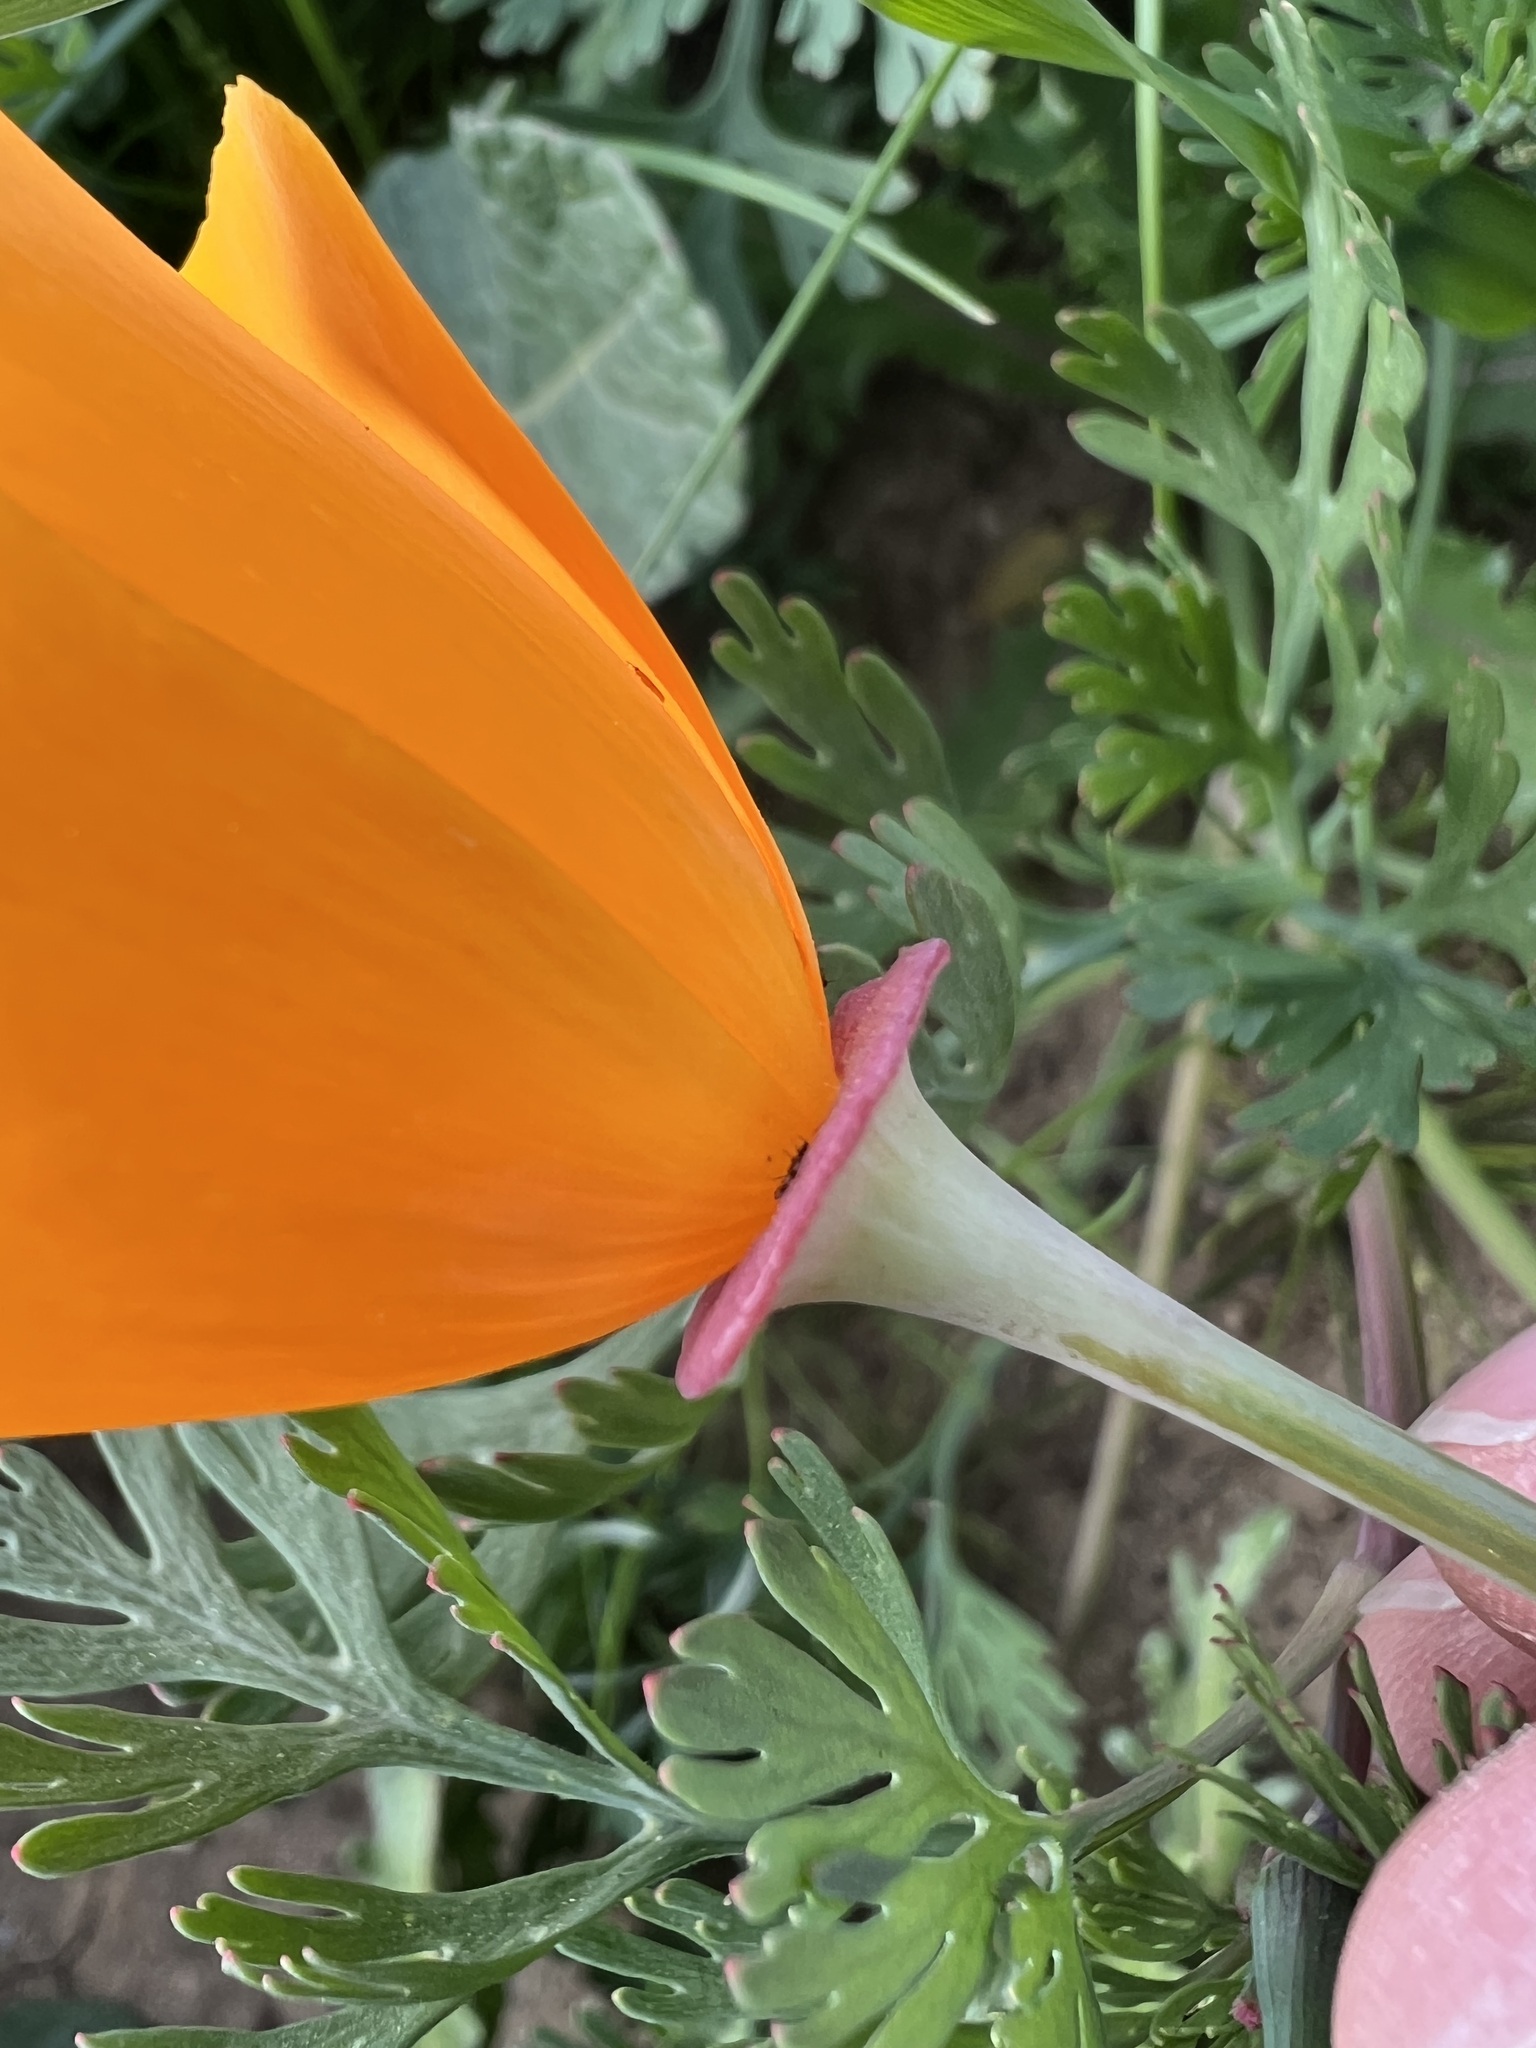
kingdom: Plantae
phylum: Tracheophyta
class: Magnoliopsida
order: Ranunculales
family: Papaveraceae
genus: Eschscholzia
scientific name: Eschscholzia californica
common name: California poppy
